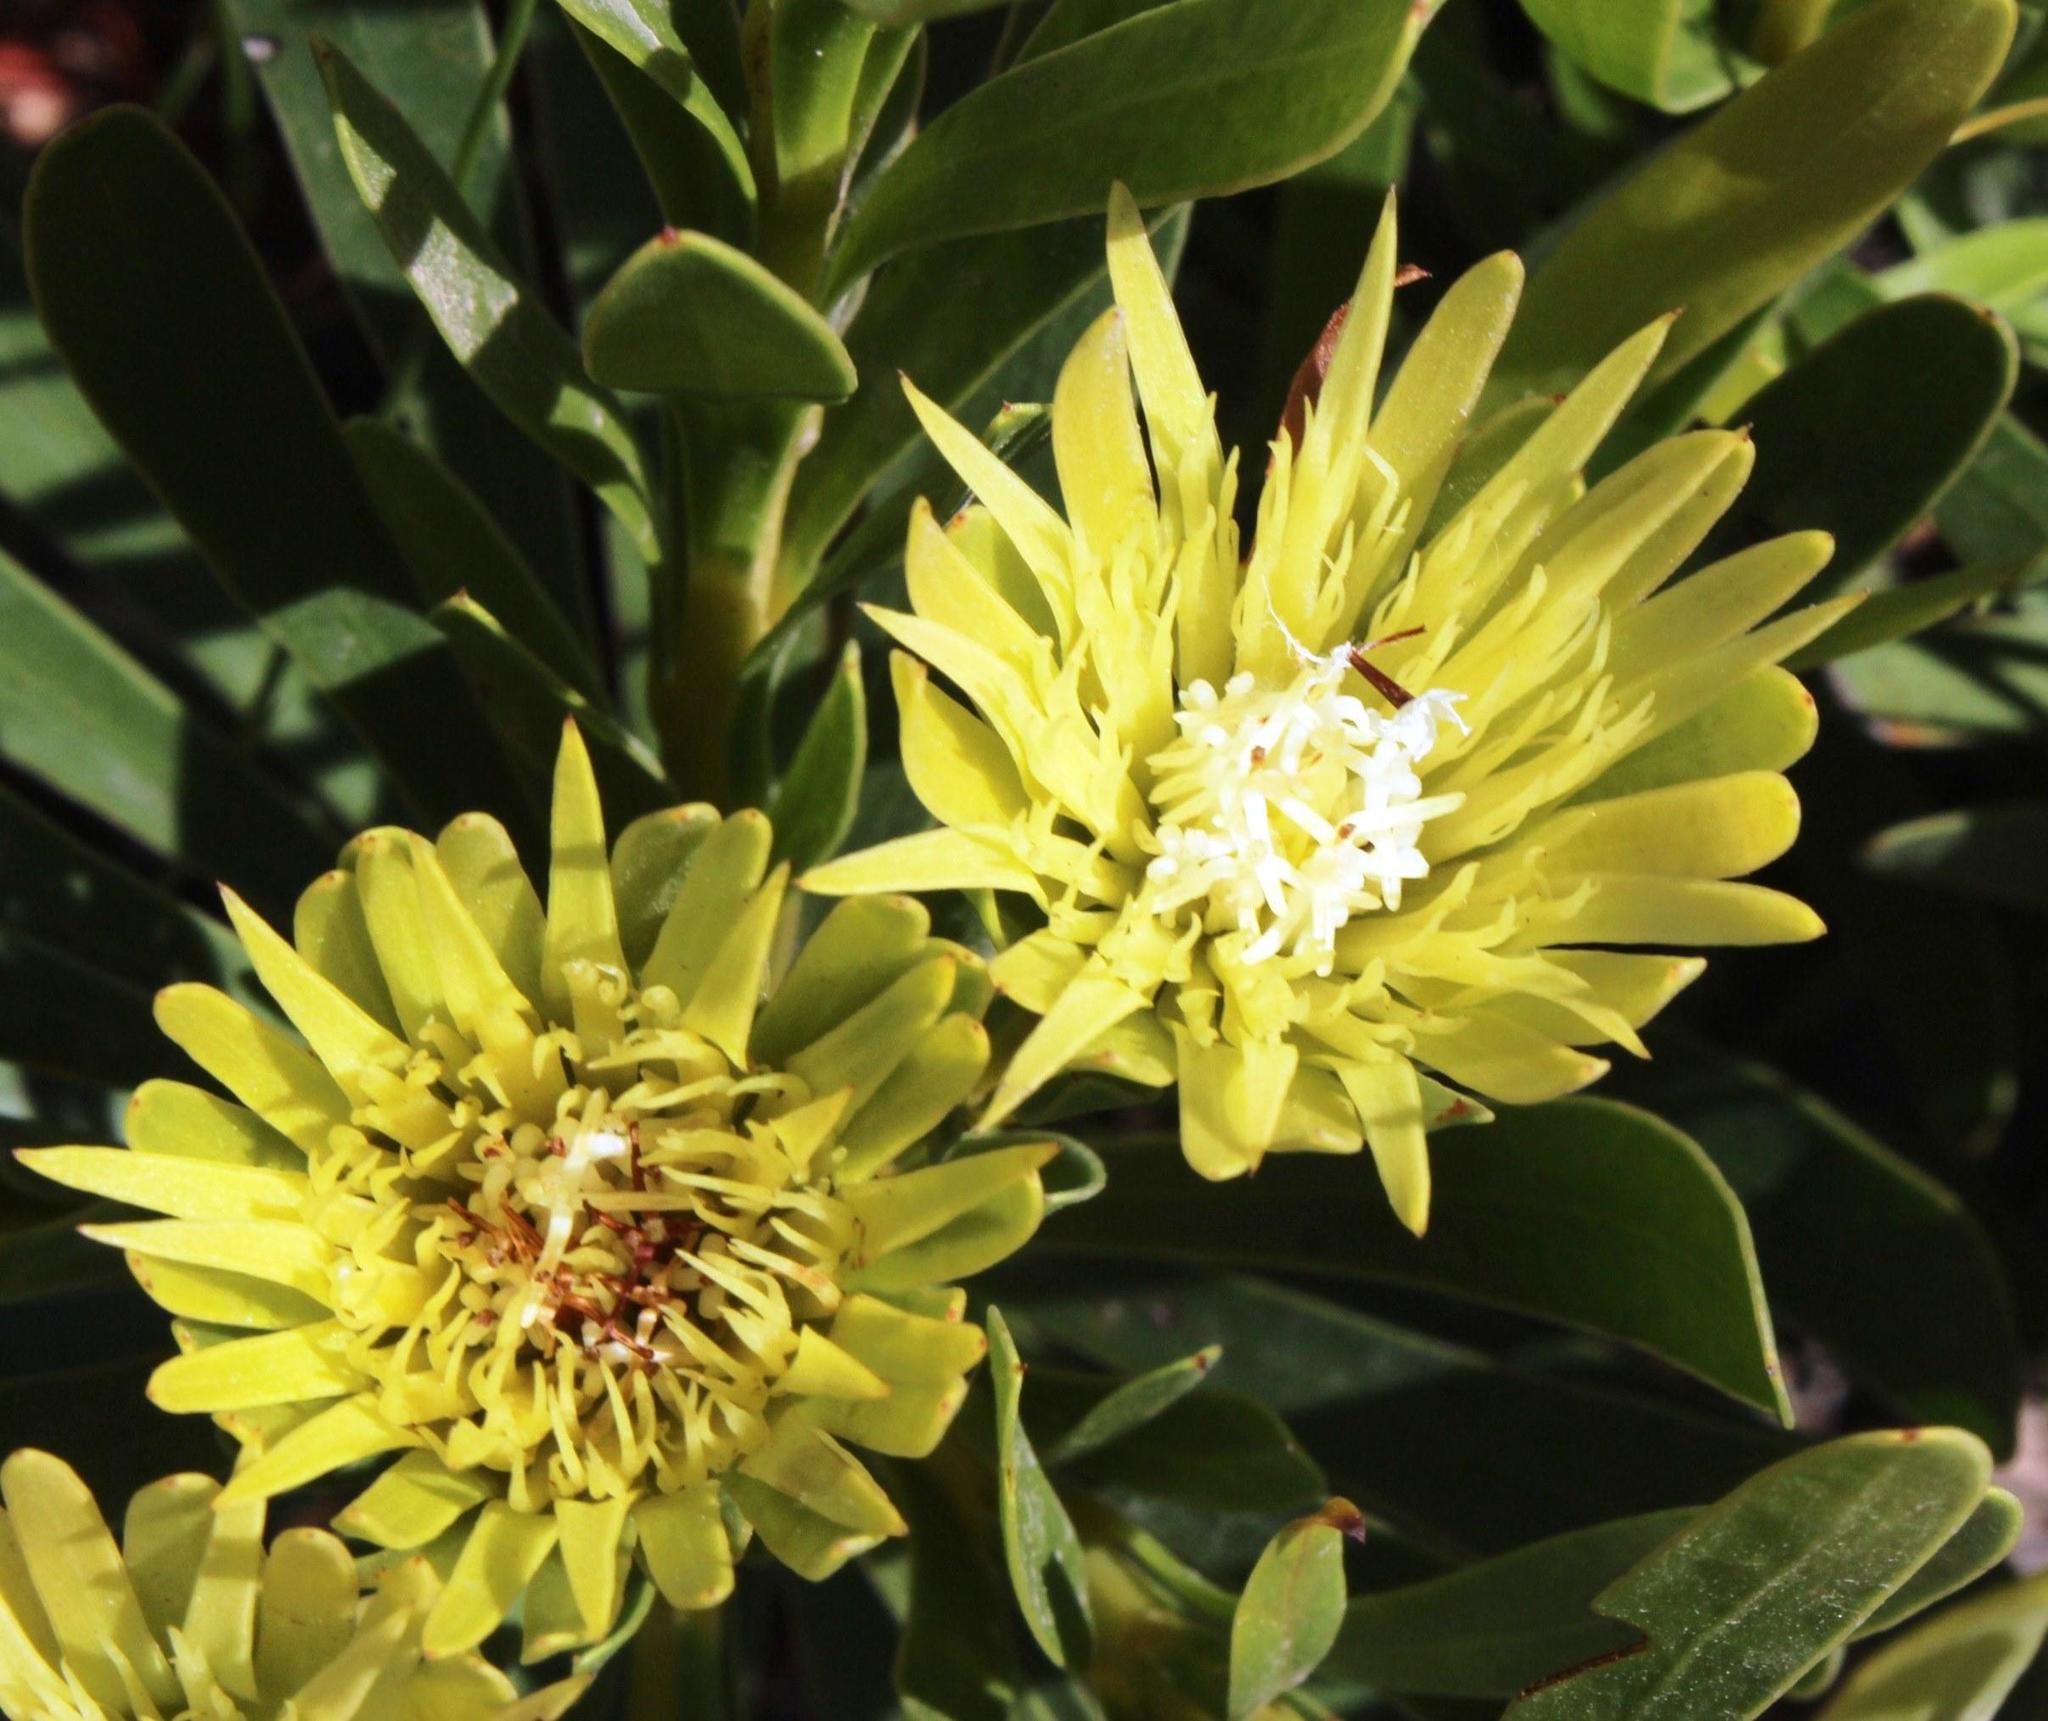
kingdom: Plantae
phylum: Tracheophyta
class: Magnoliopsida
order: Proteales
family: Proteaceae
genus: Aulax
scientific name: Aulax umbellata
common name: Broad-leaf featherbush
